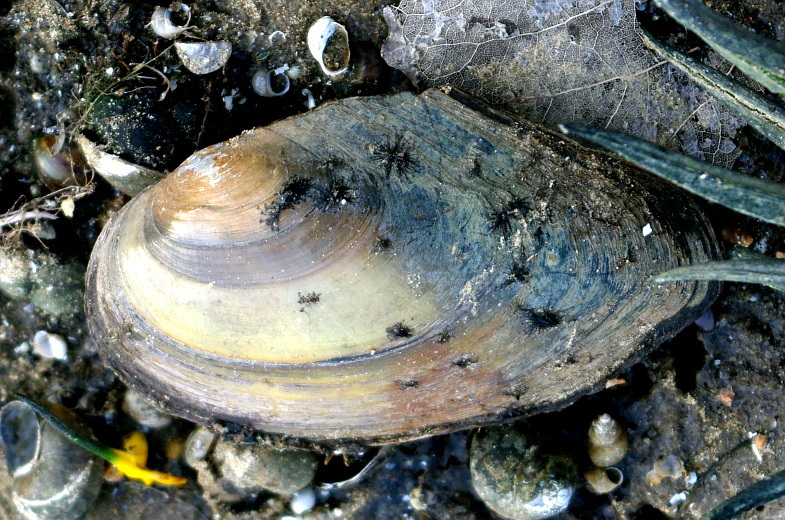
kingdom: Animalia
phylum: Mollusca
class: Bivalvia
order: Unionida
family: Unionidae
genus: Anodonta
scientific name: Anodonta anatina
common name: Duck mussel
